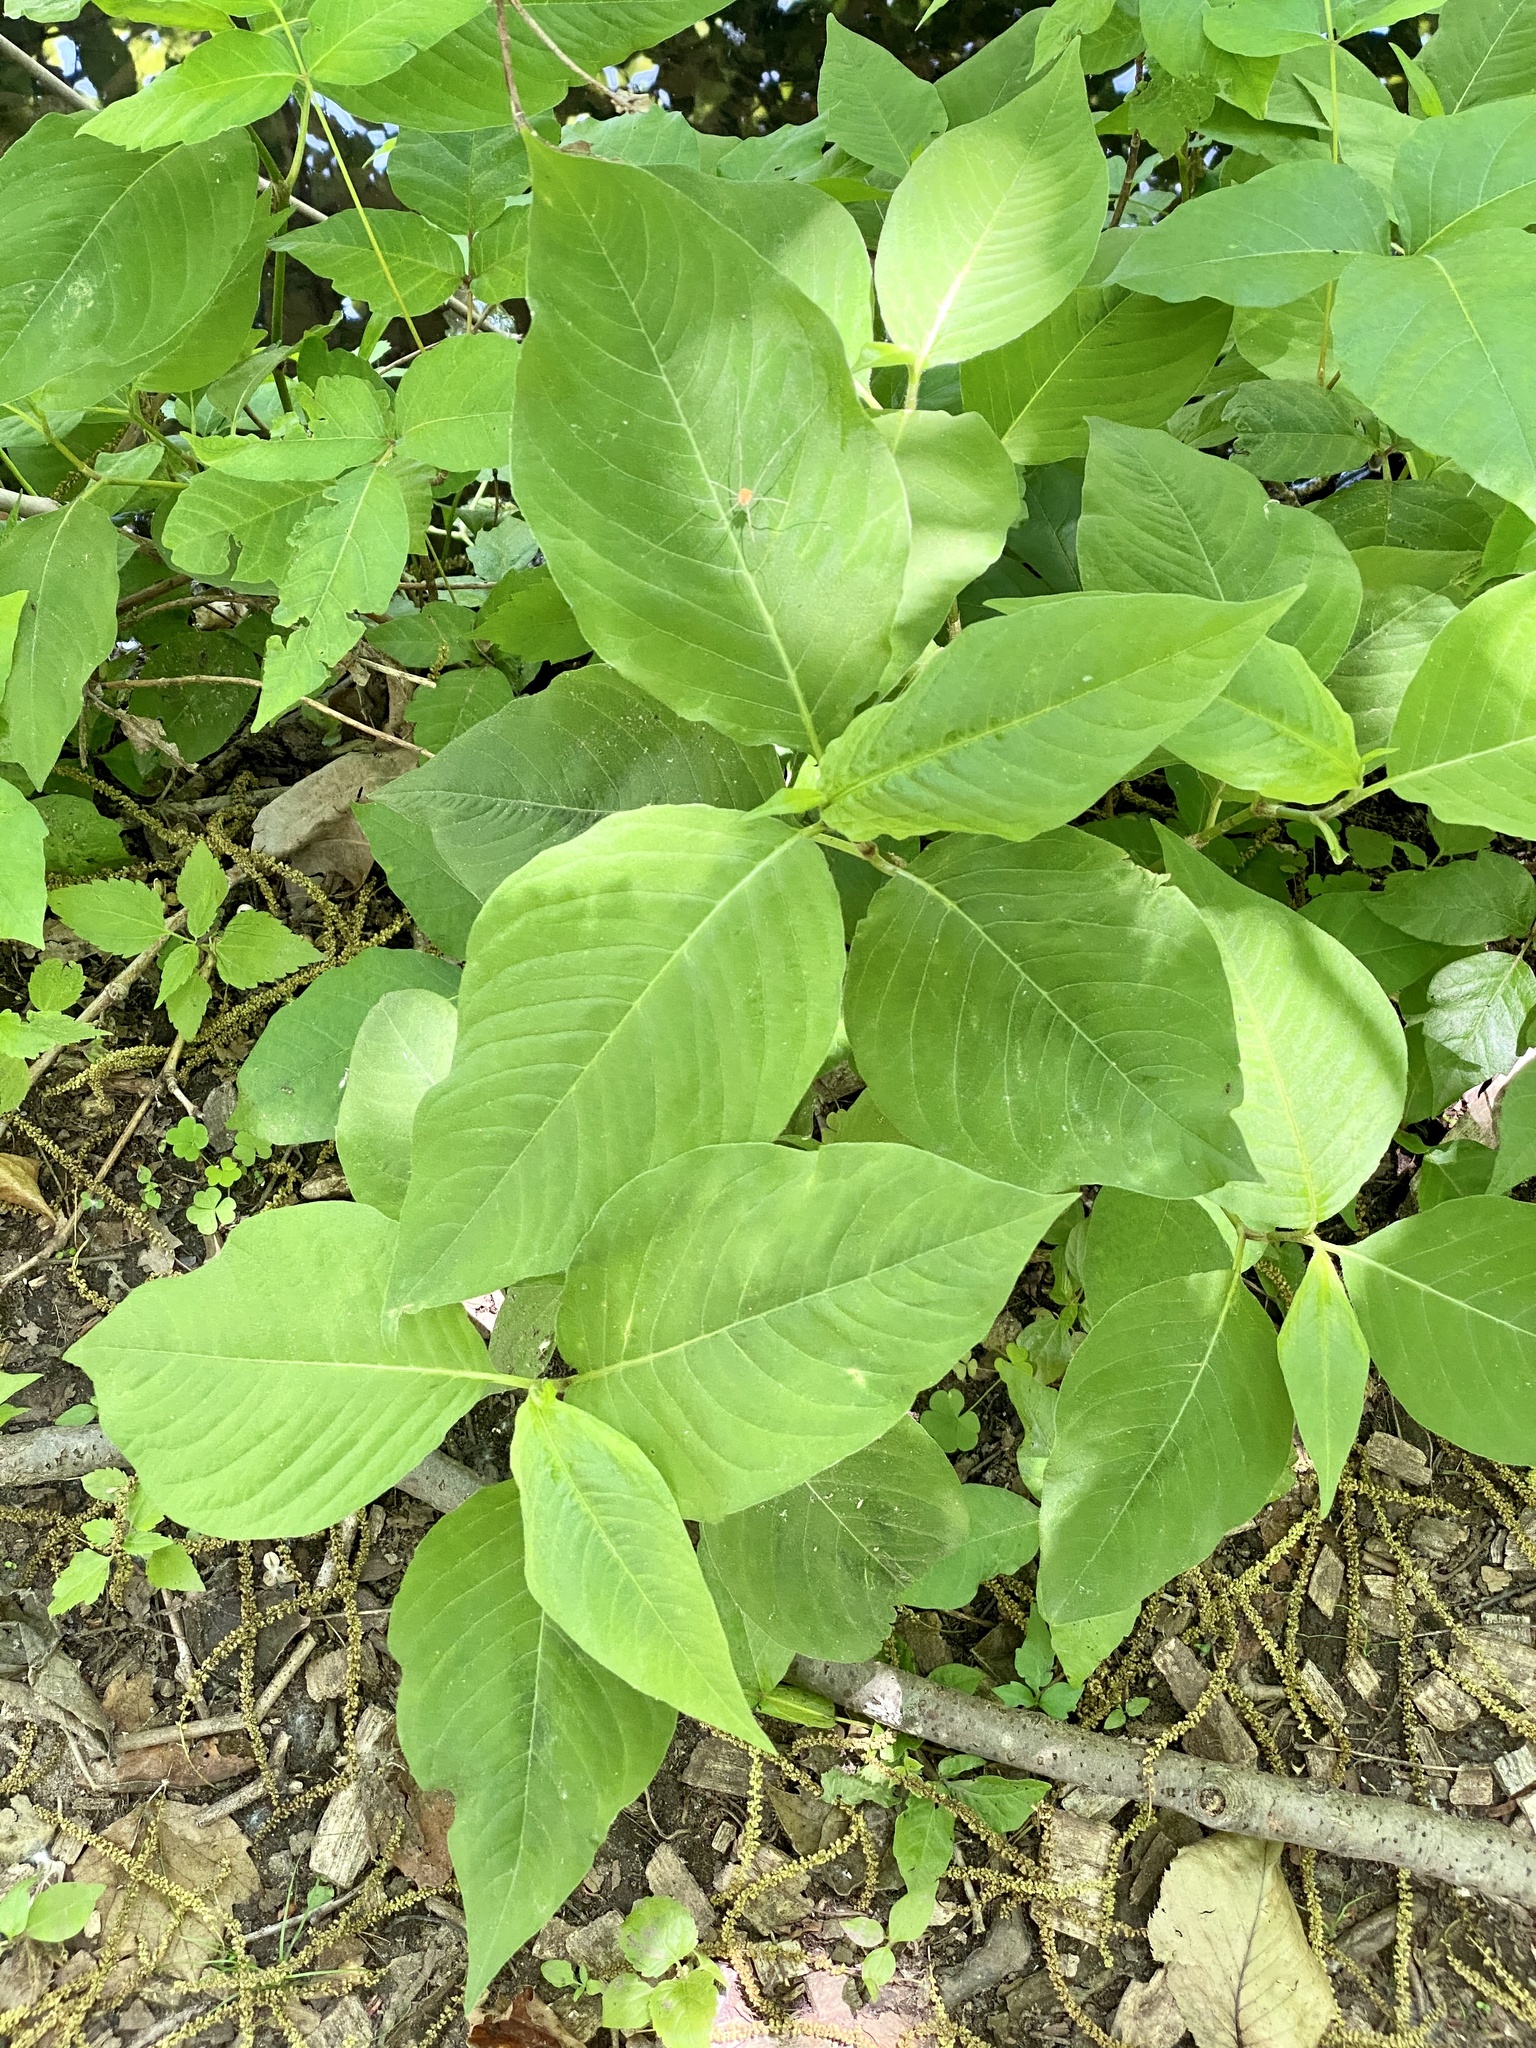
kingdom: Plantae
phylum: Tracheophyta
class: Magnoliopsida
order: Caryophyllales
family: Polygonaceae
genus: Persicaria
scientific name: Persicaria virginiana
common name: Jumpseed
